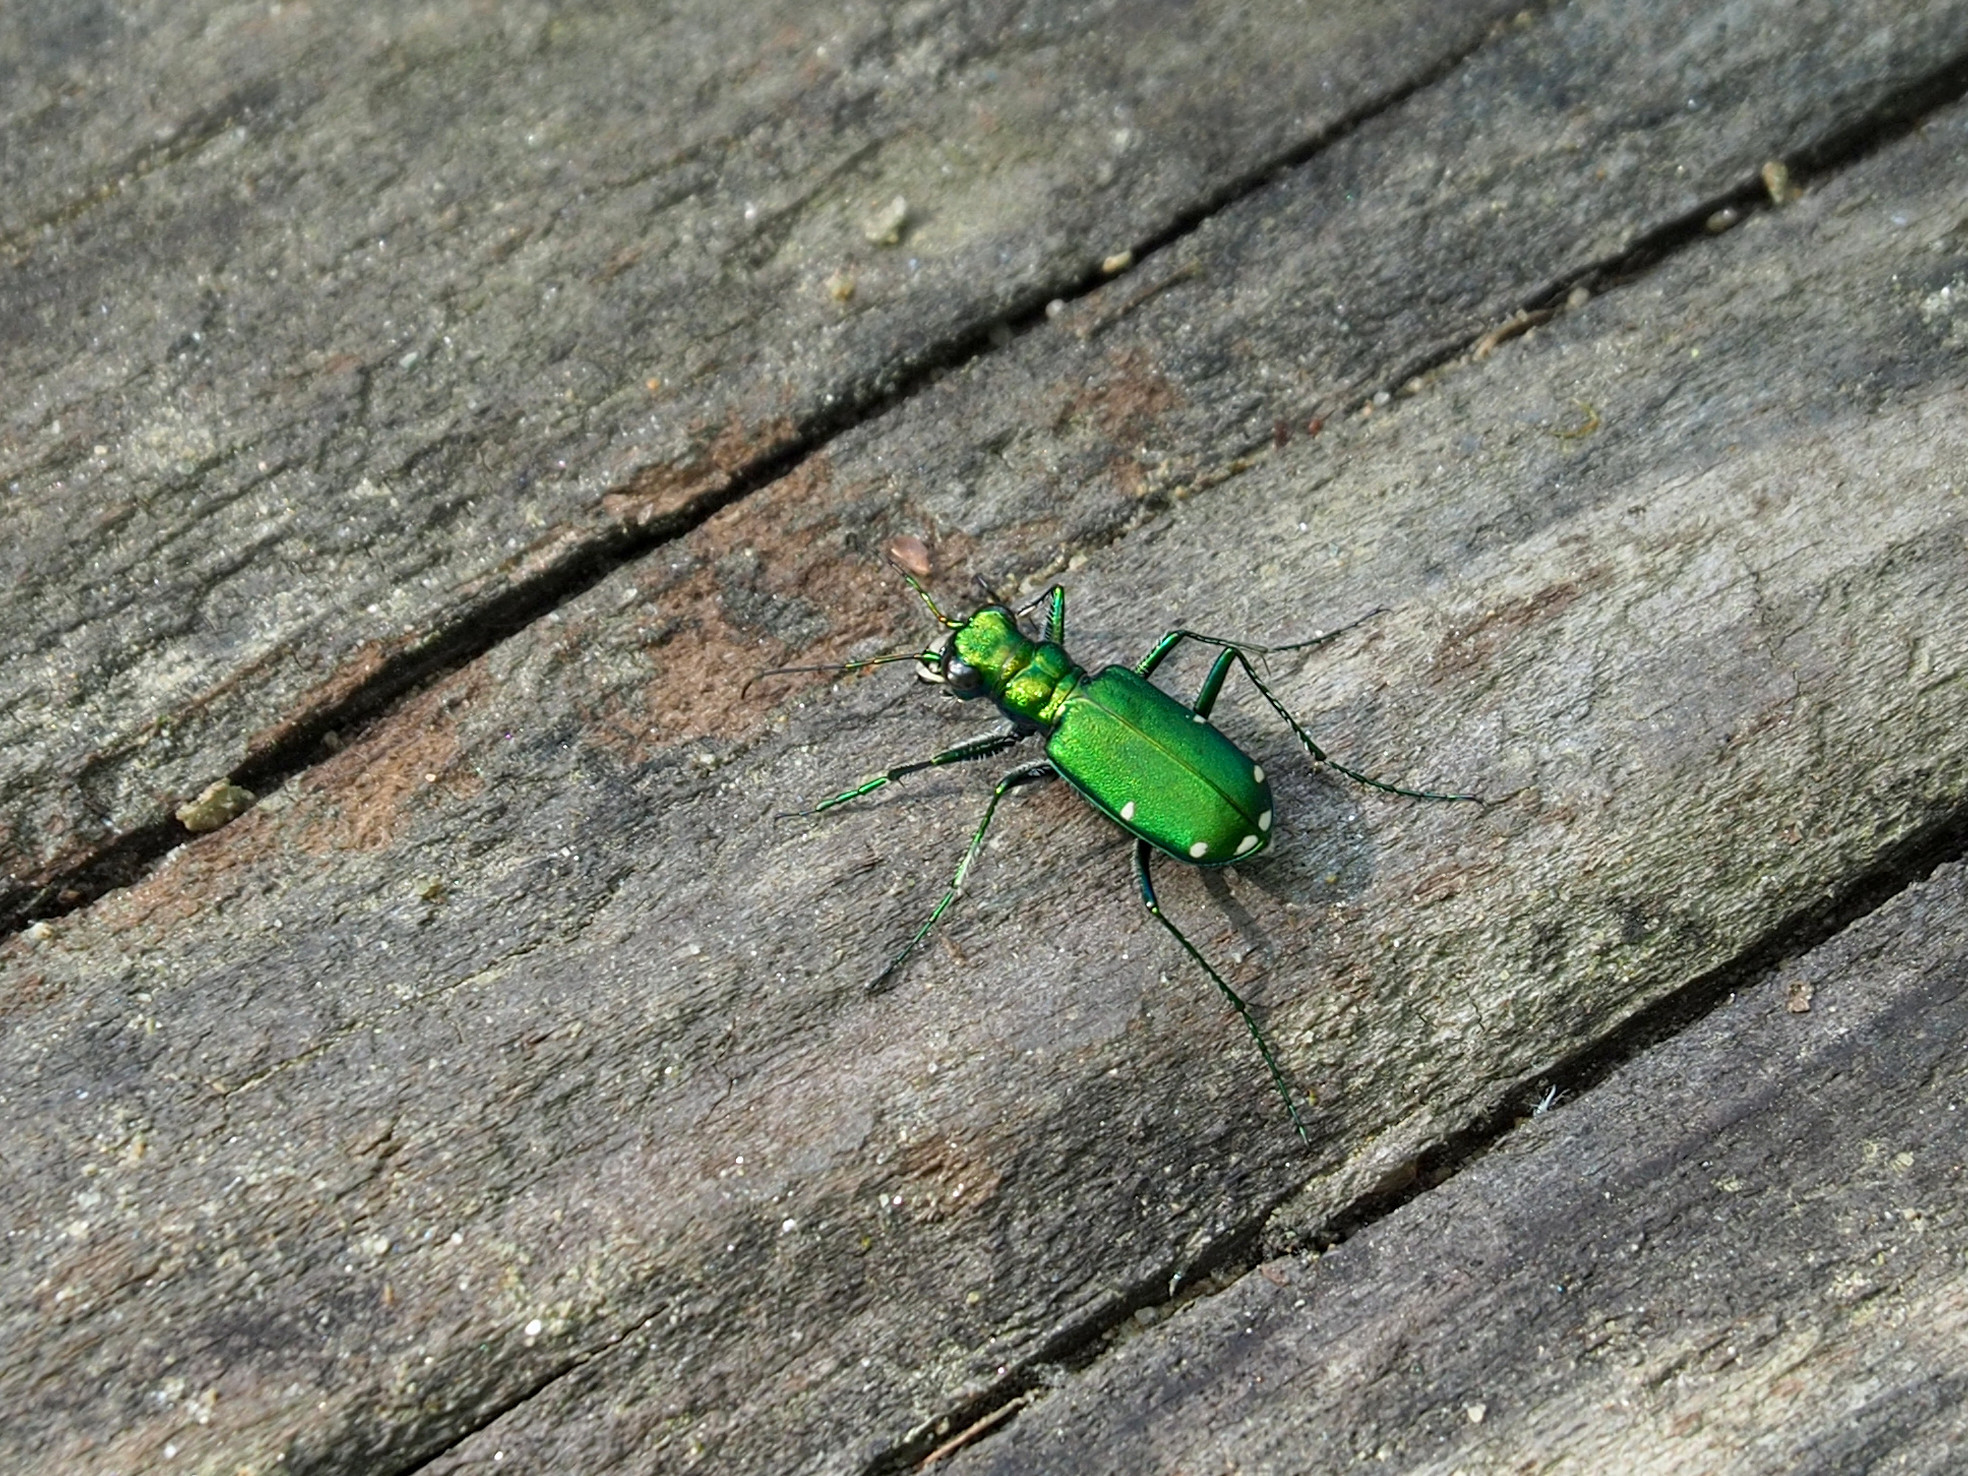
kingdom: Animalia
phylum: Arthropoda
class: Insecta
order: Coleoptera
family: Carabidae
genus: Cicindela
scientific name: Cicindela sexguttata
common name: Six-spotted tiger beetle
